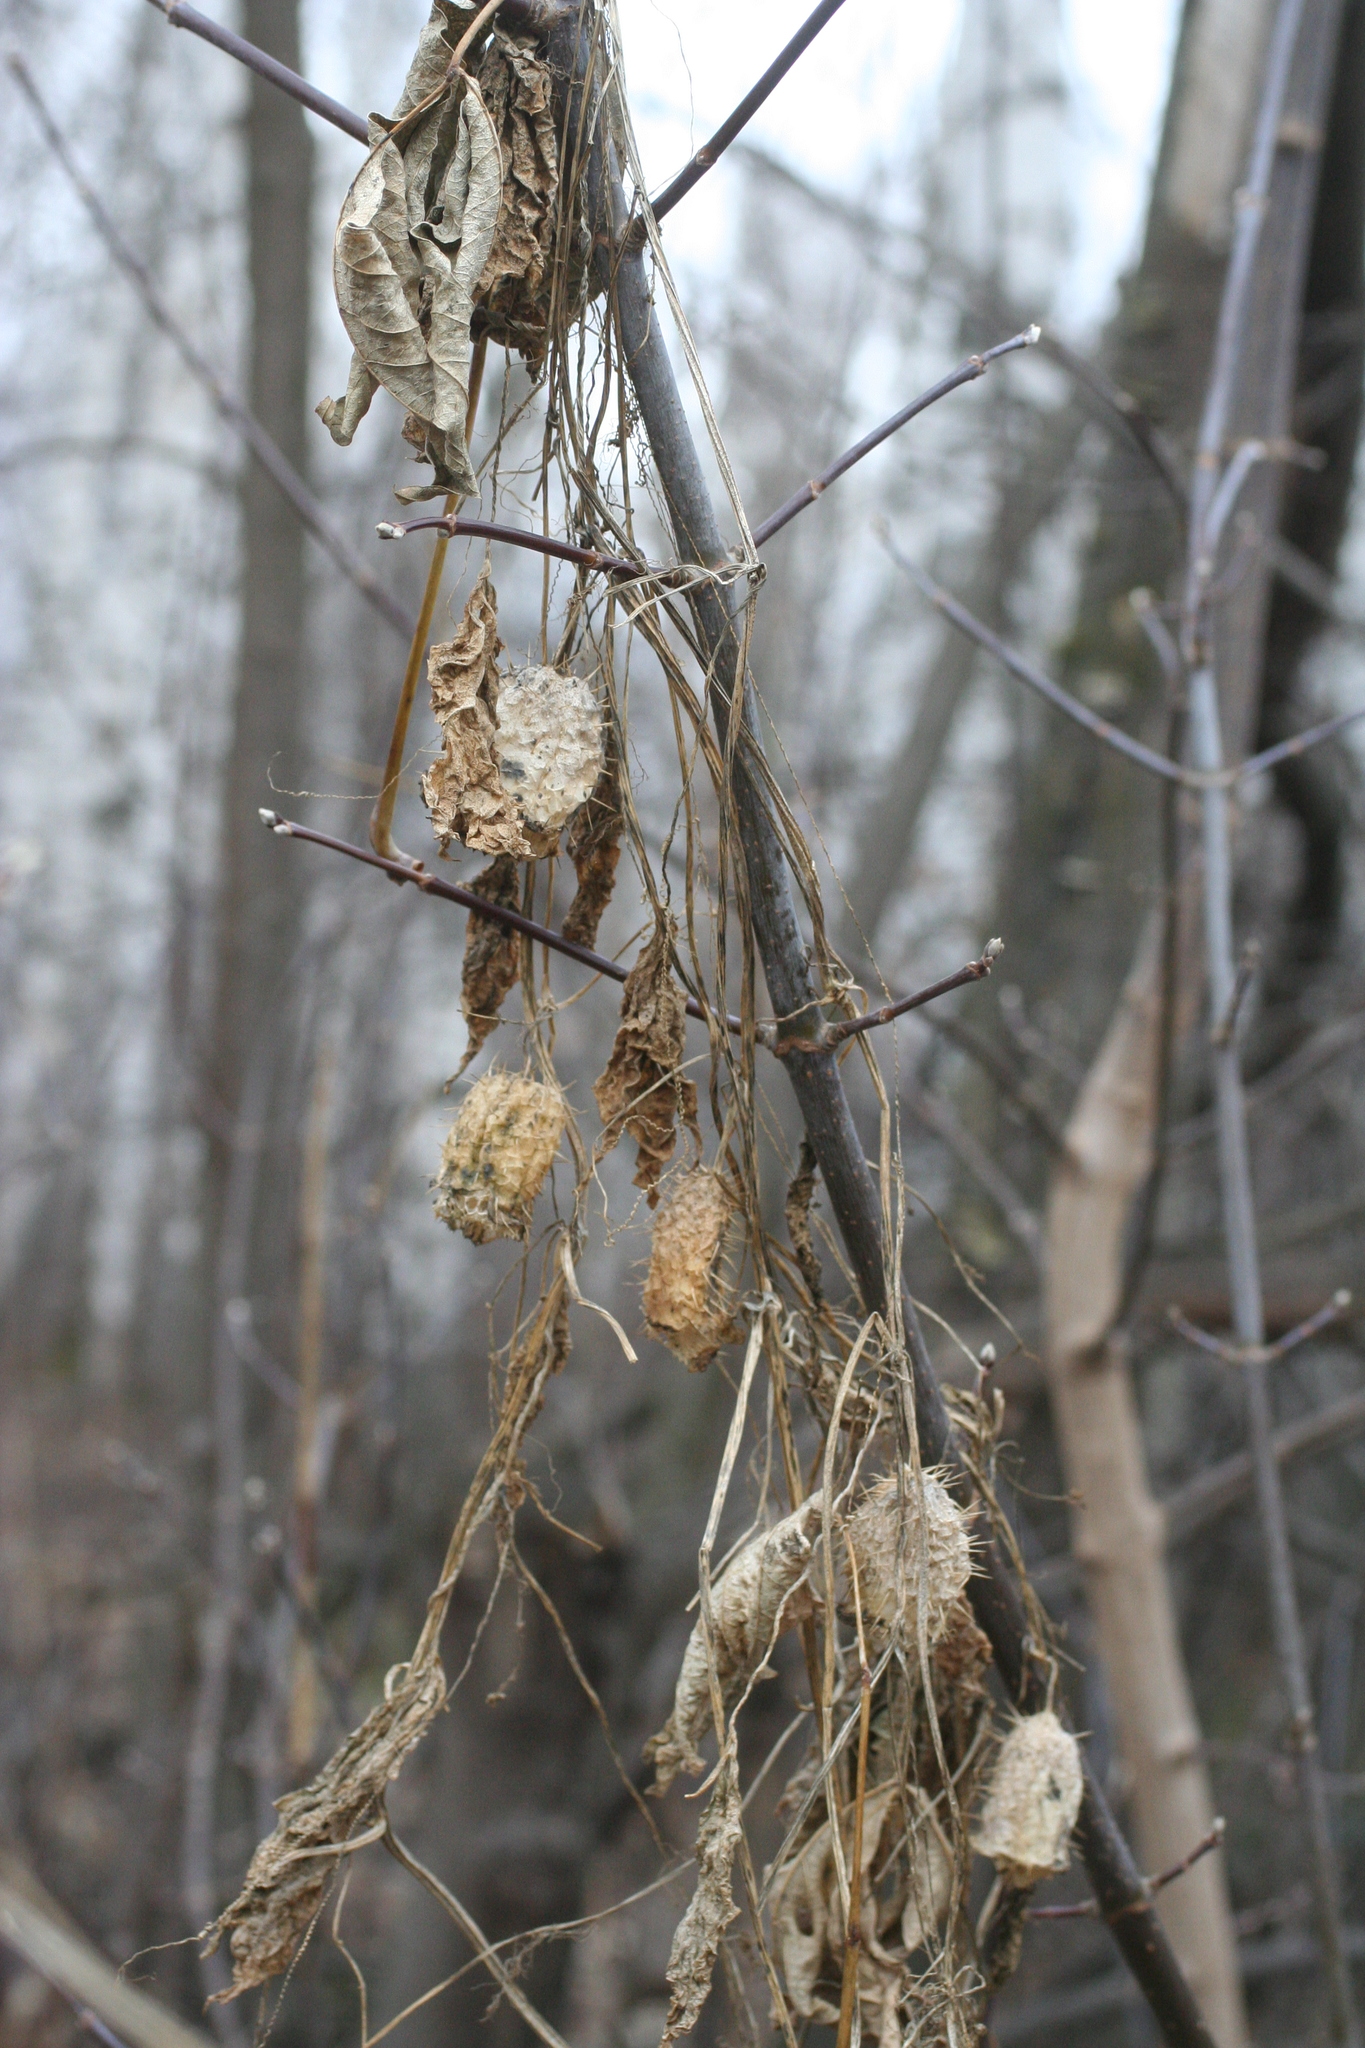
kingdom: Plantae
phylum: Tracheophyta
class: Magnoliopsida
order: Cucurbitales
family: Cucurbitaceae
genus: Echinocystis
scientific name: Echinocystis lobata
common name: Wild cucumber
